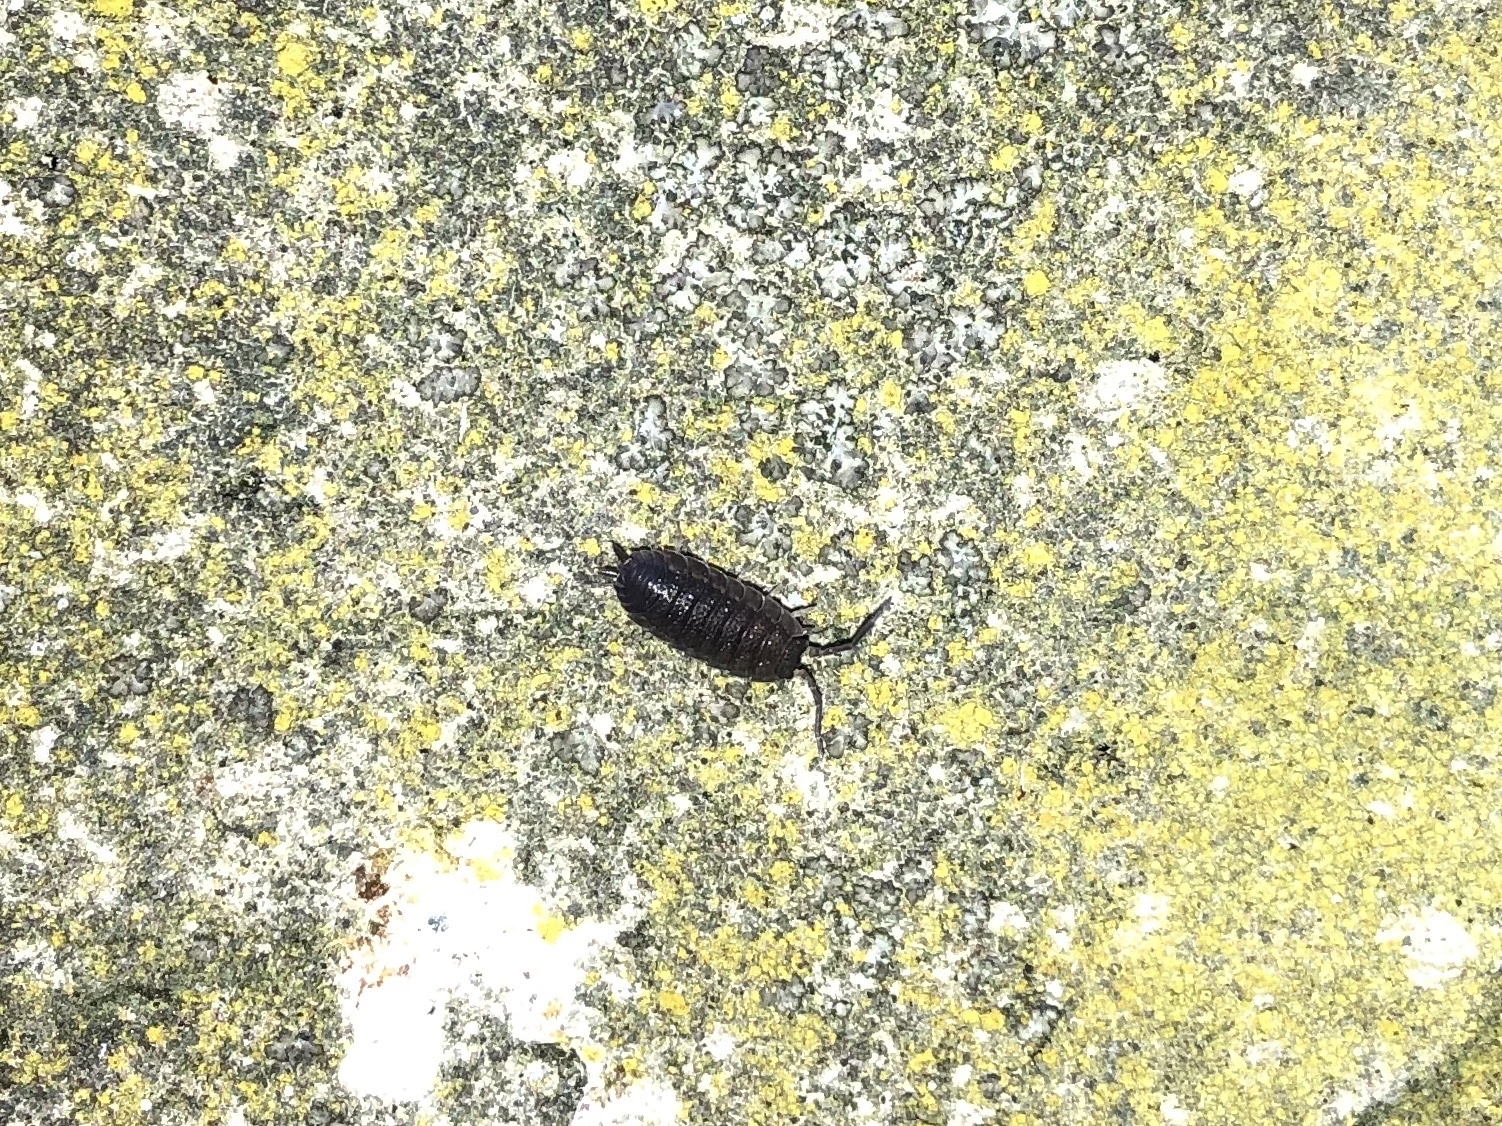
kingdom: Animalia
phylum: Arthropoda
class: Malacostraca
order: Isopoda
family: Porcellionidae
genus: Porcellio
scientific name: Porcellio scaber
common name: Common rough woodlouse
